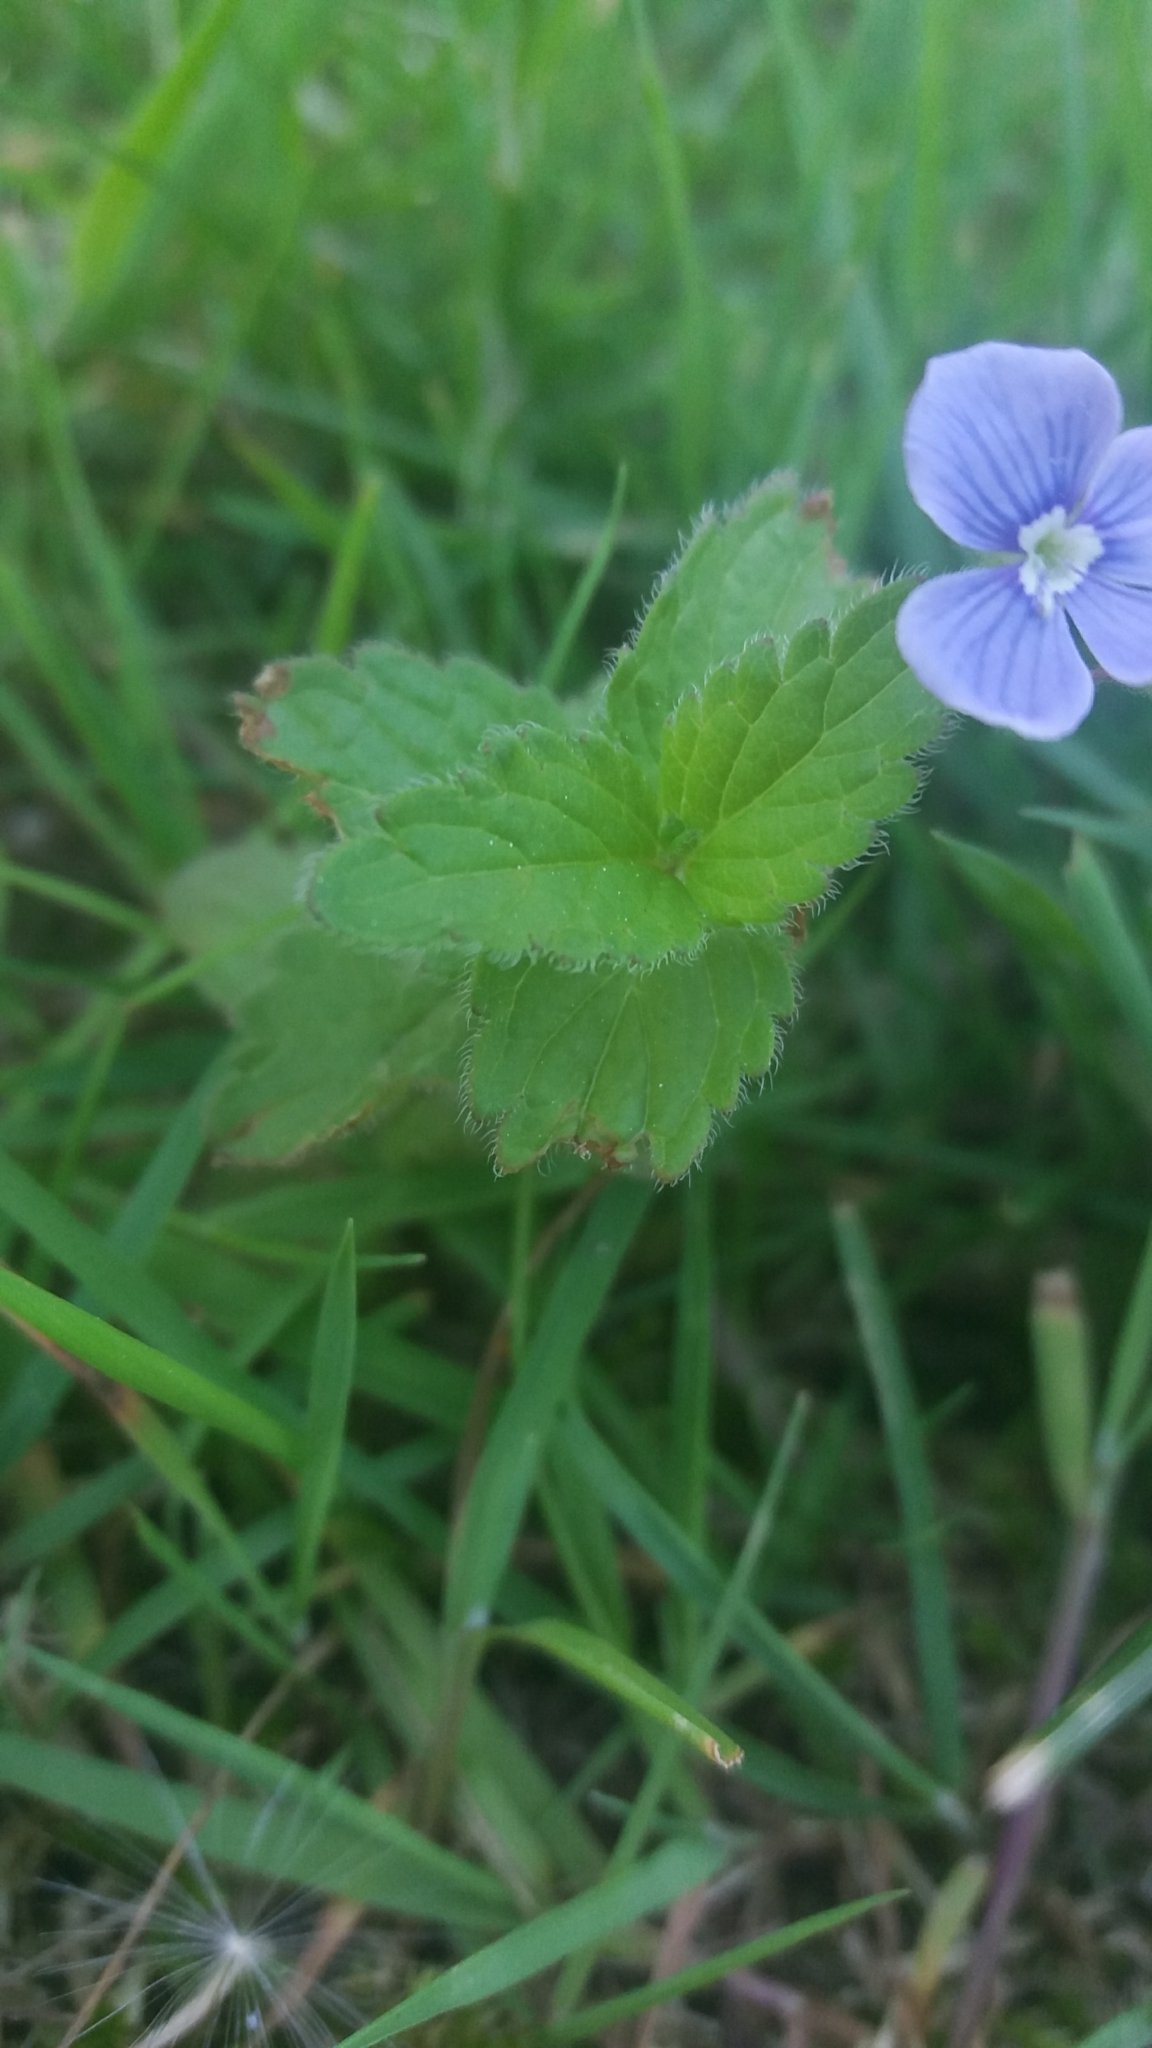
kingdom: Plantae
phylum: Tracheophyta
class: Magnoliopsida
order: Lamiales
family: Plantaginaceae
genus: Veronica
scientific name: Veronica chamaedrys
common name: Germander speedwell
